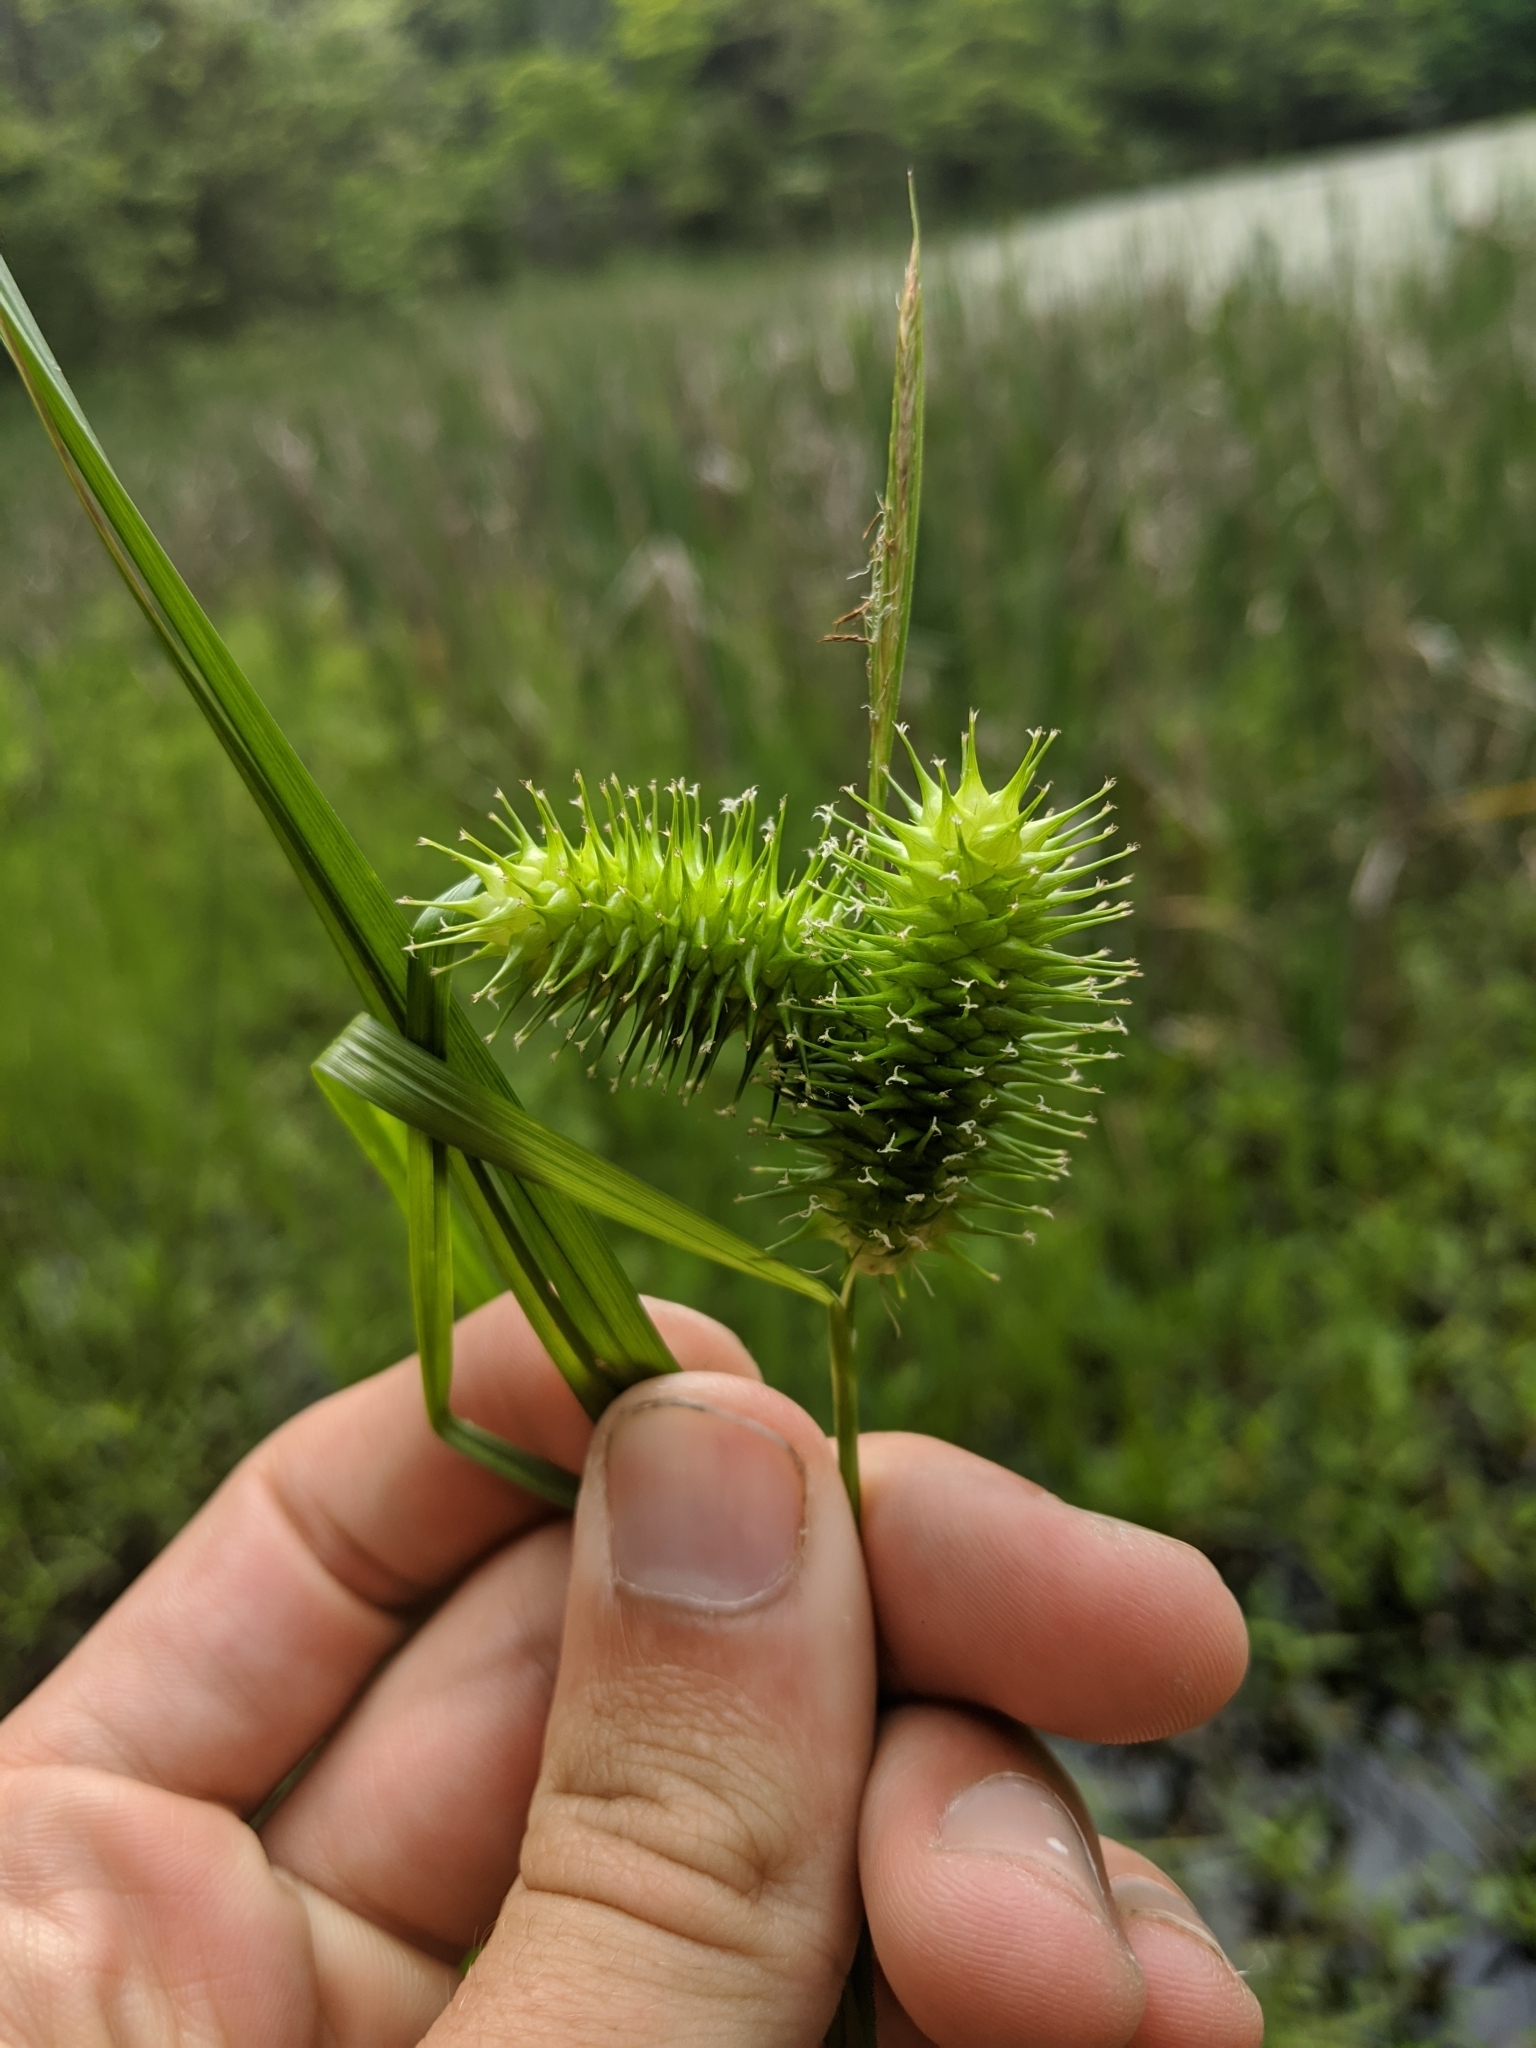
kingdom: Plantae
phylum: Tracheophyta
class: Liliopsida
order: Poales
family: Cyperaceae
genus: Carex
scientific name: Carex lurida
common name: Sallow sedge
